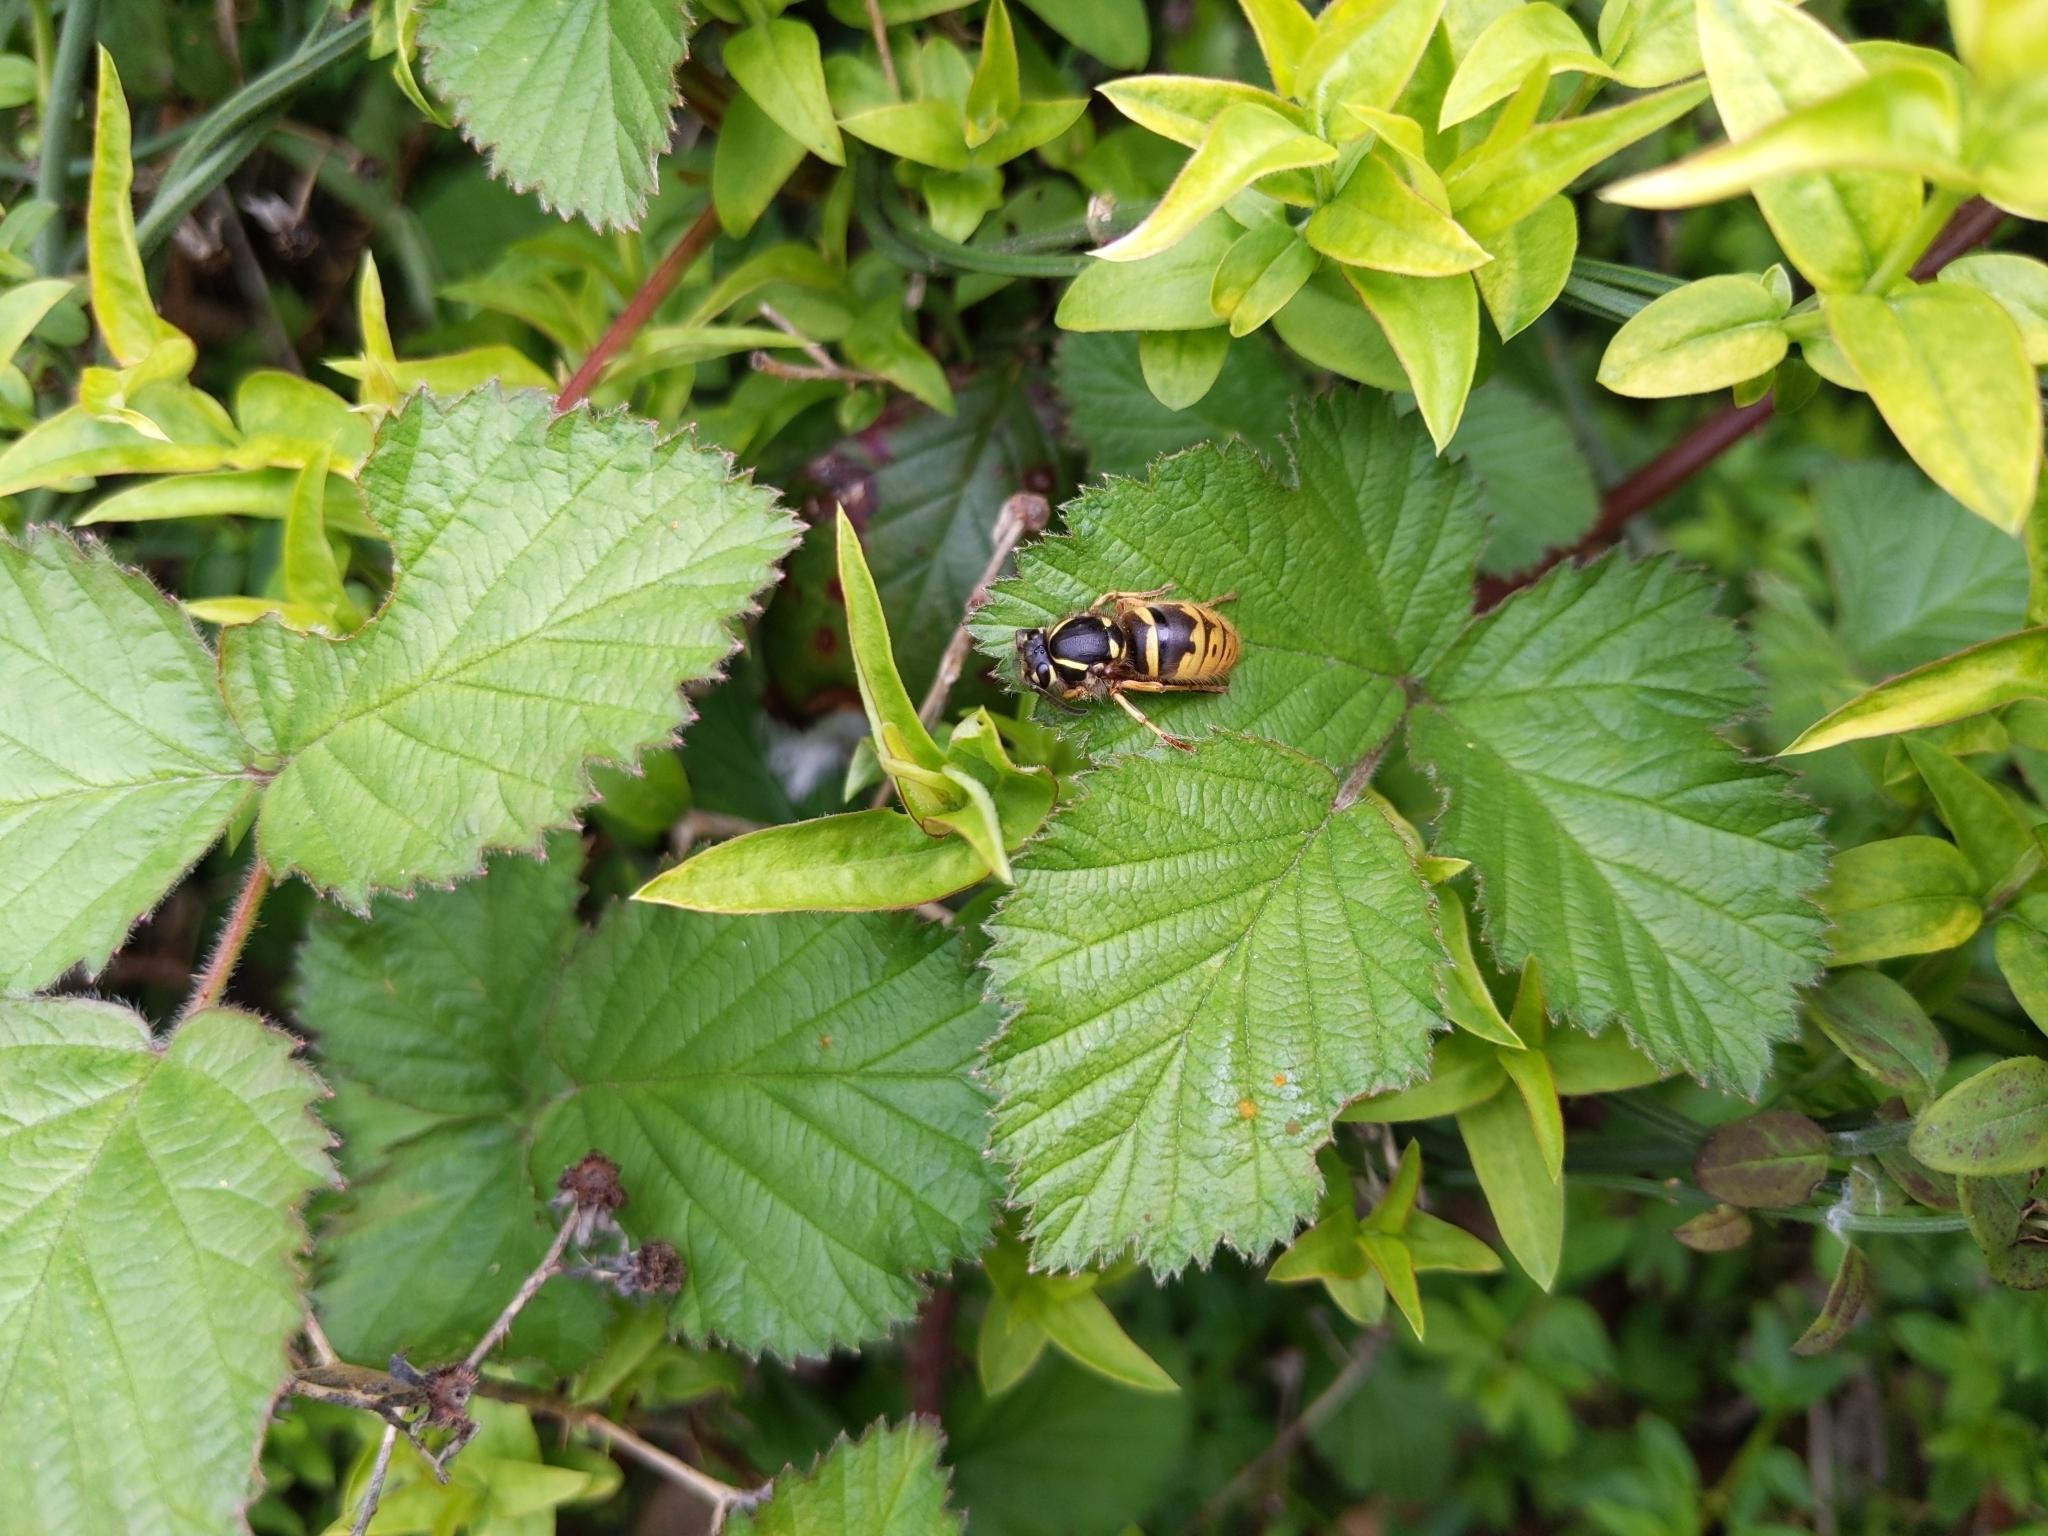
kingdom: Animalia
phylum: Arthropoda
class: Insecta
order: Hymenoptera
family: Vespidae
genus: Vespula
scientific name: Vespula vulgaris
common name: Common wasp
